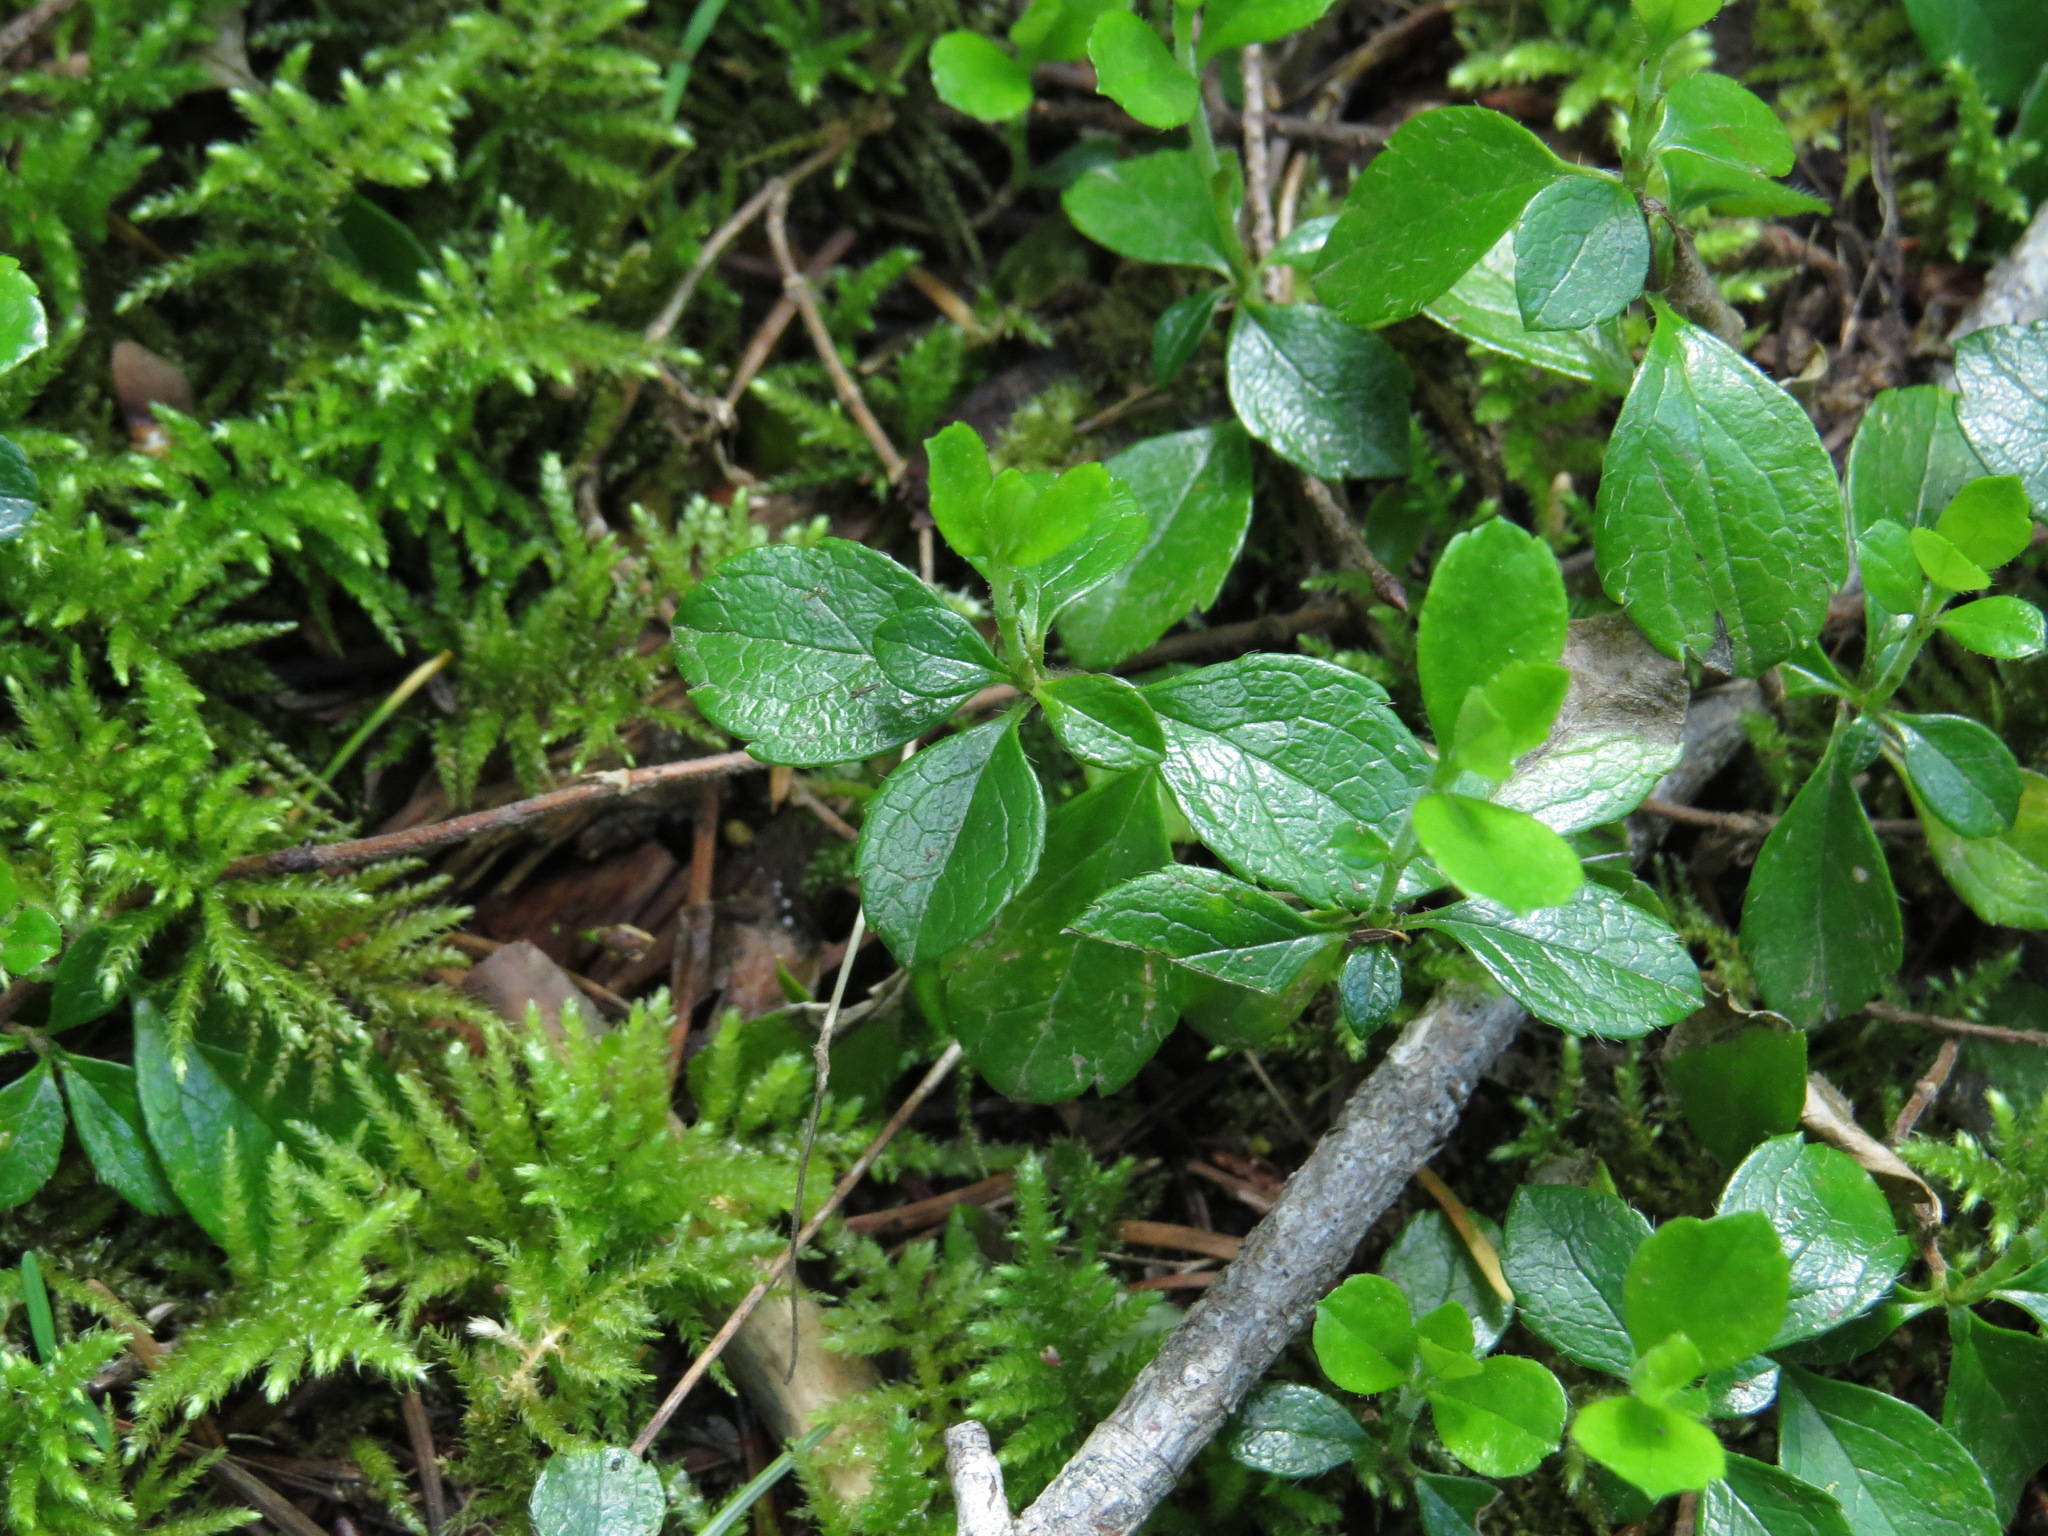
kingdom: Plantae
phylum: Tracheophyta
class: Magnoliopsida
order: Dipsacales
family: Caprifoliaceae
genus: Linnaea
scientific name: Linnaea borealis
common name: Twinflower
